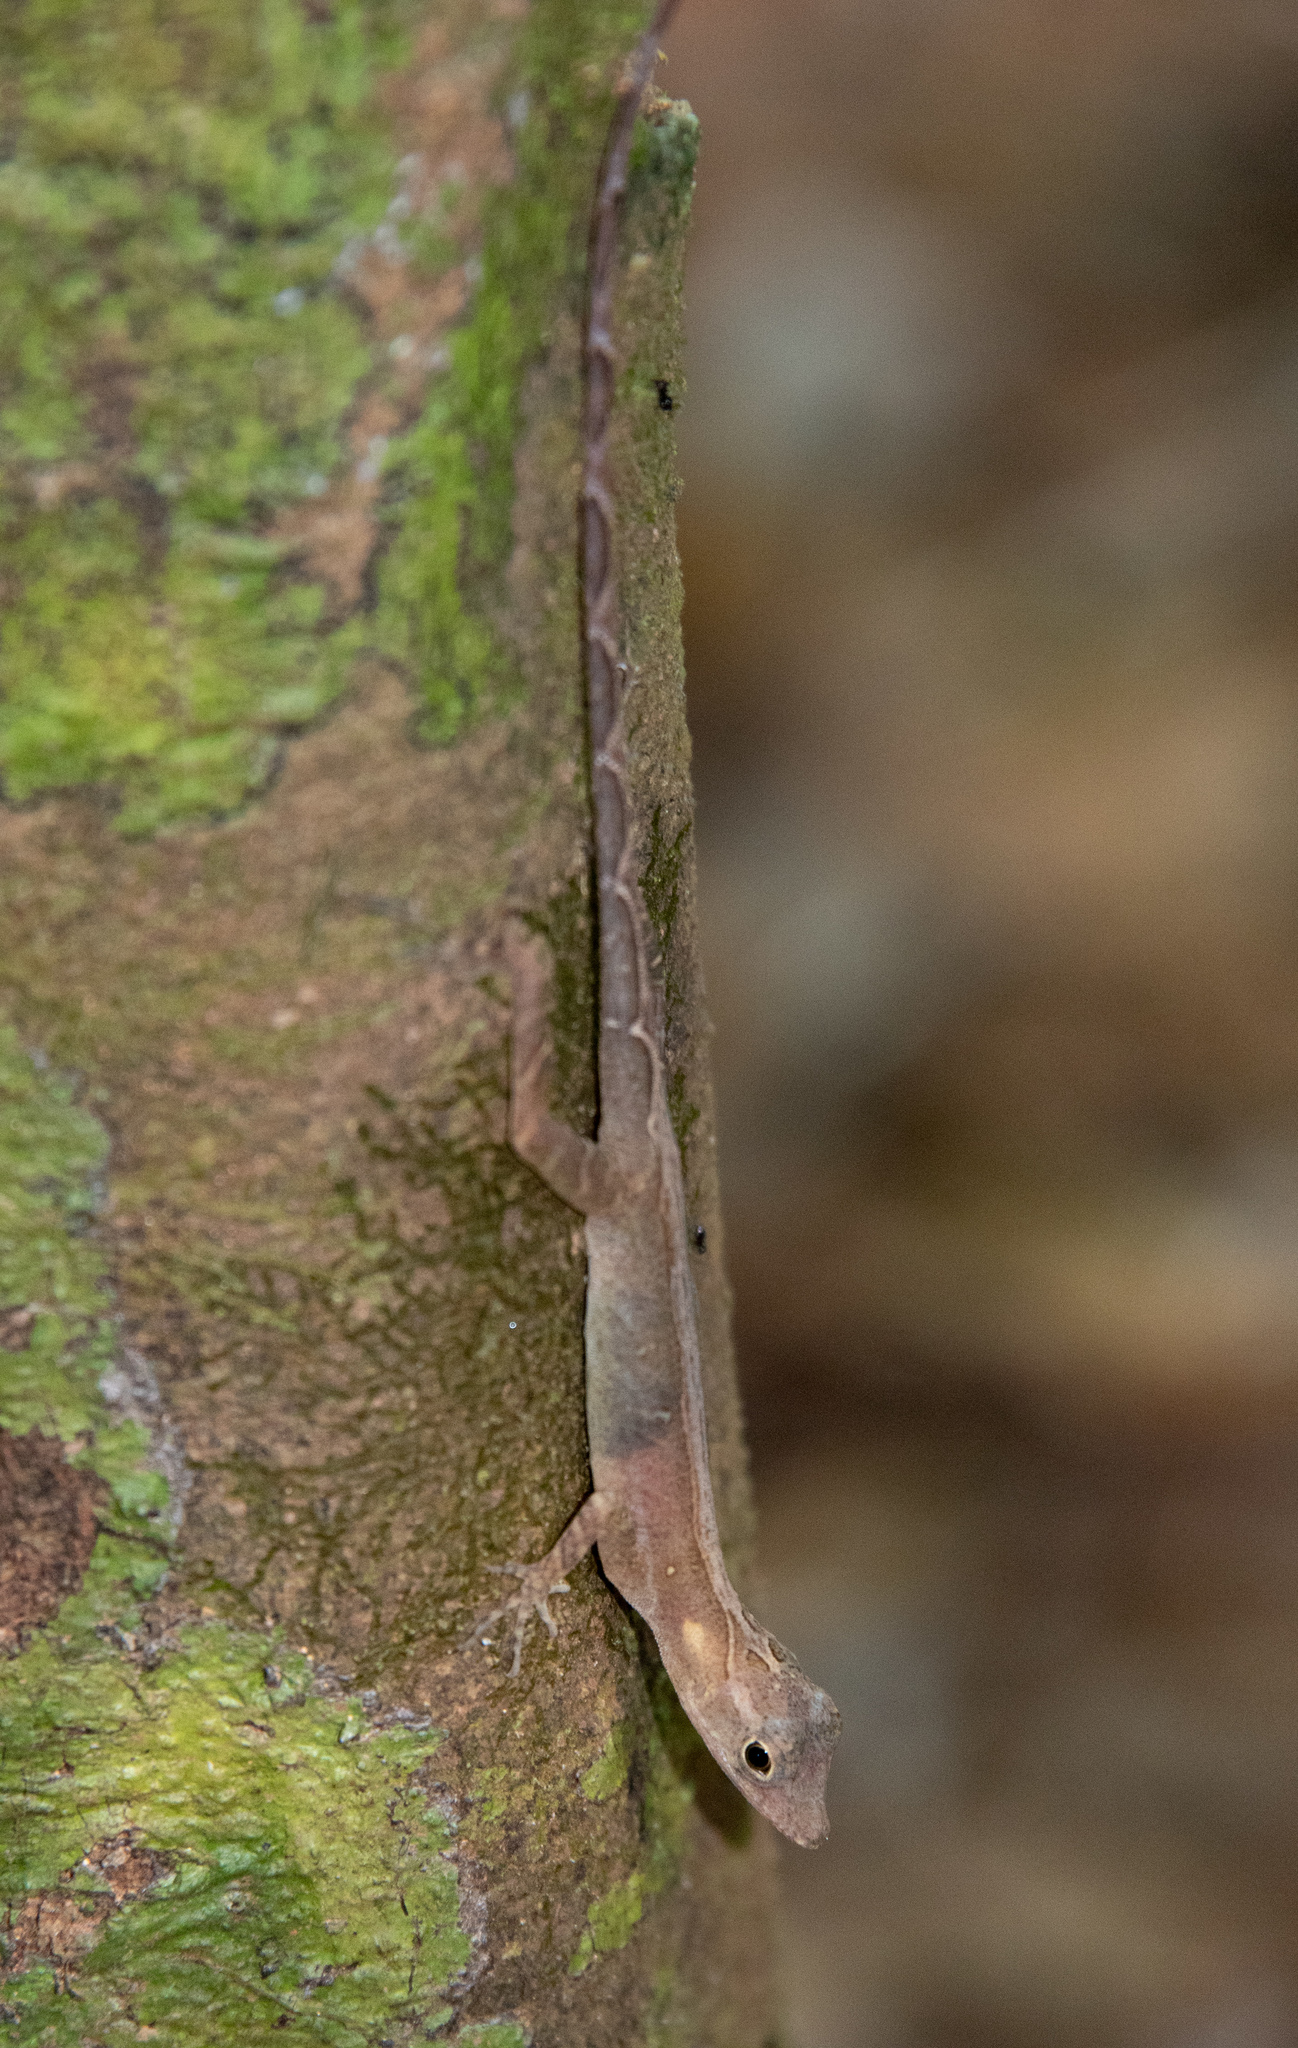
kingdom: Animalia
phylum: Chordata
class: Squamata
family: Dactyloidae
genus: Anolis
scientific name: Anolis osa
